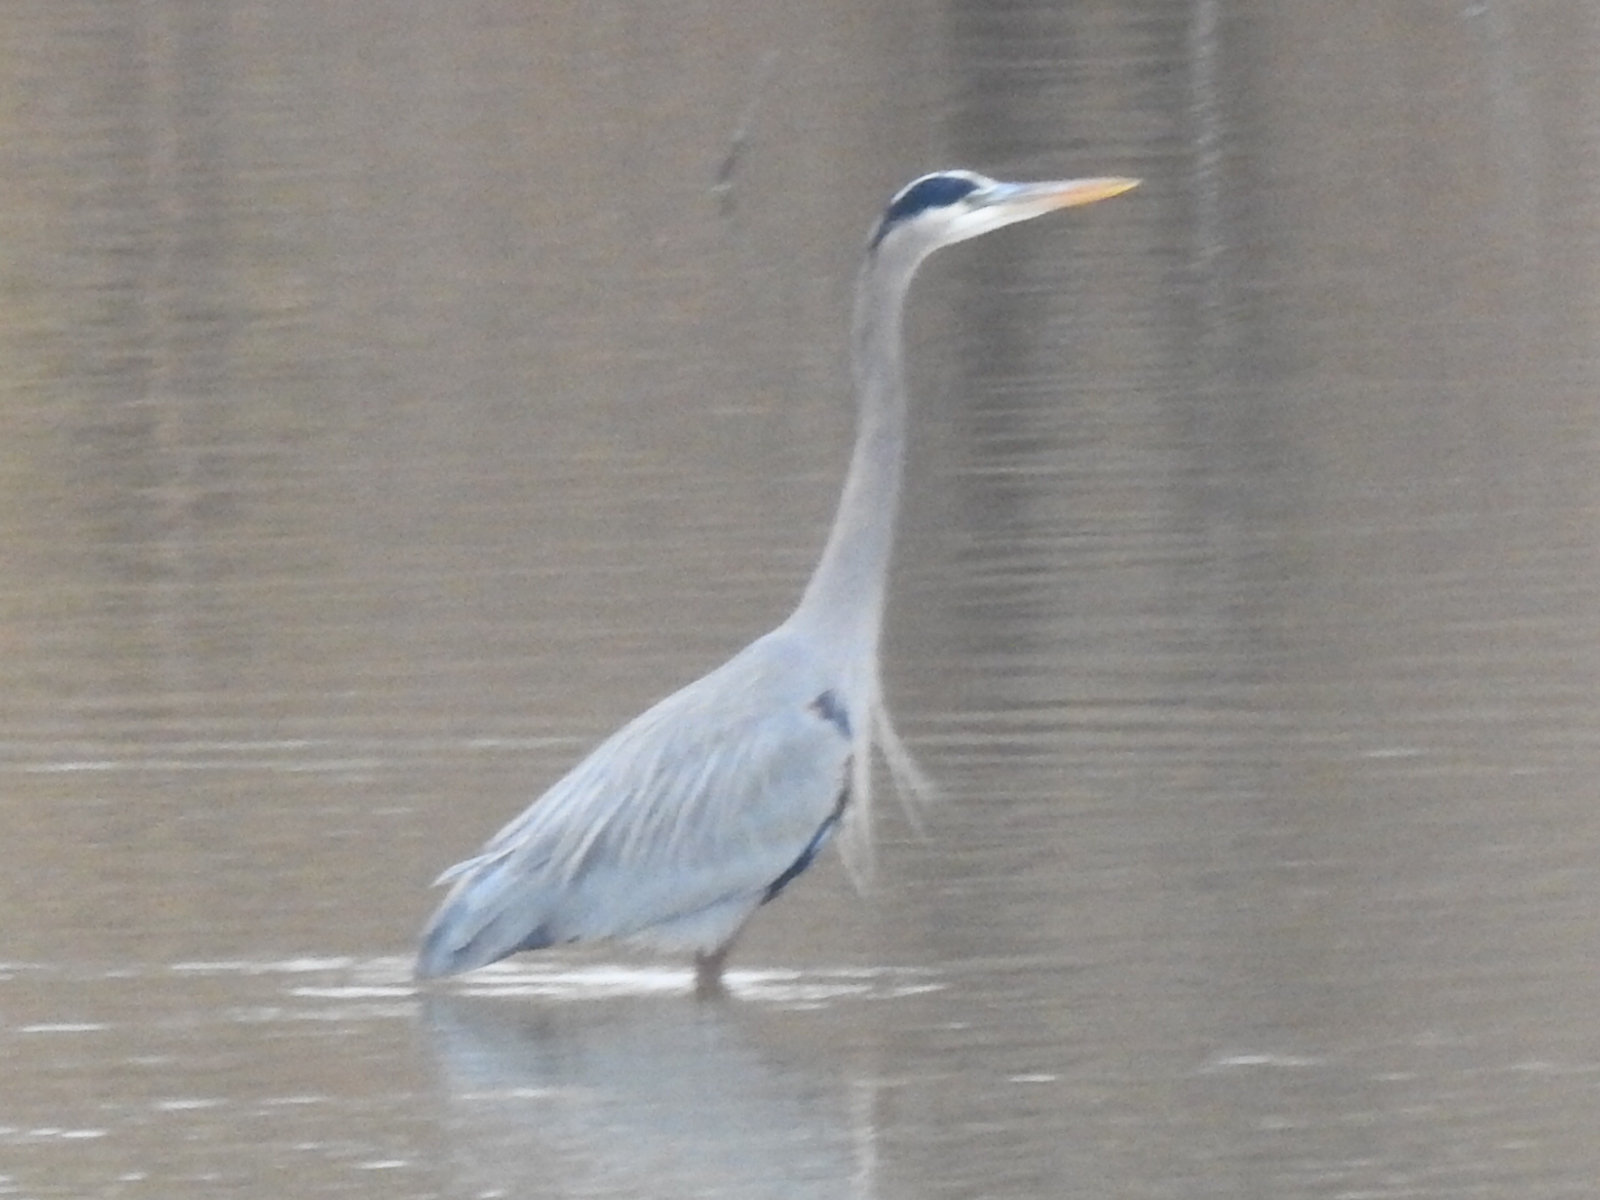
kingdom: Animalia
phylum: Chordata
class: Aves
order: Pelecaniformes
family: Ardeidae
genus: Ardea
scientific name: Ardea herodias
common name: Great blue heron
